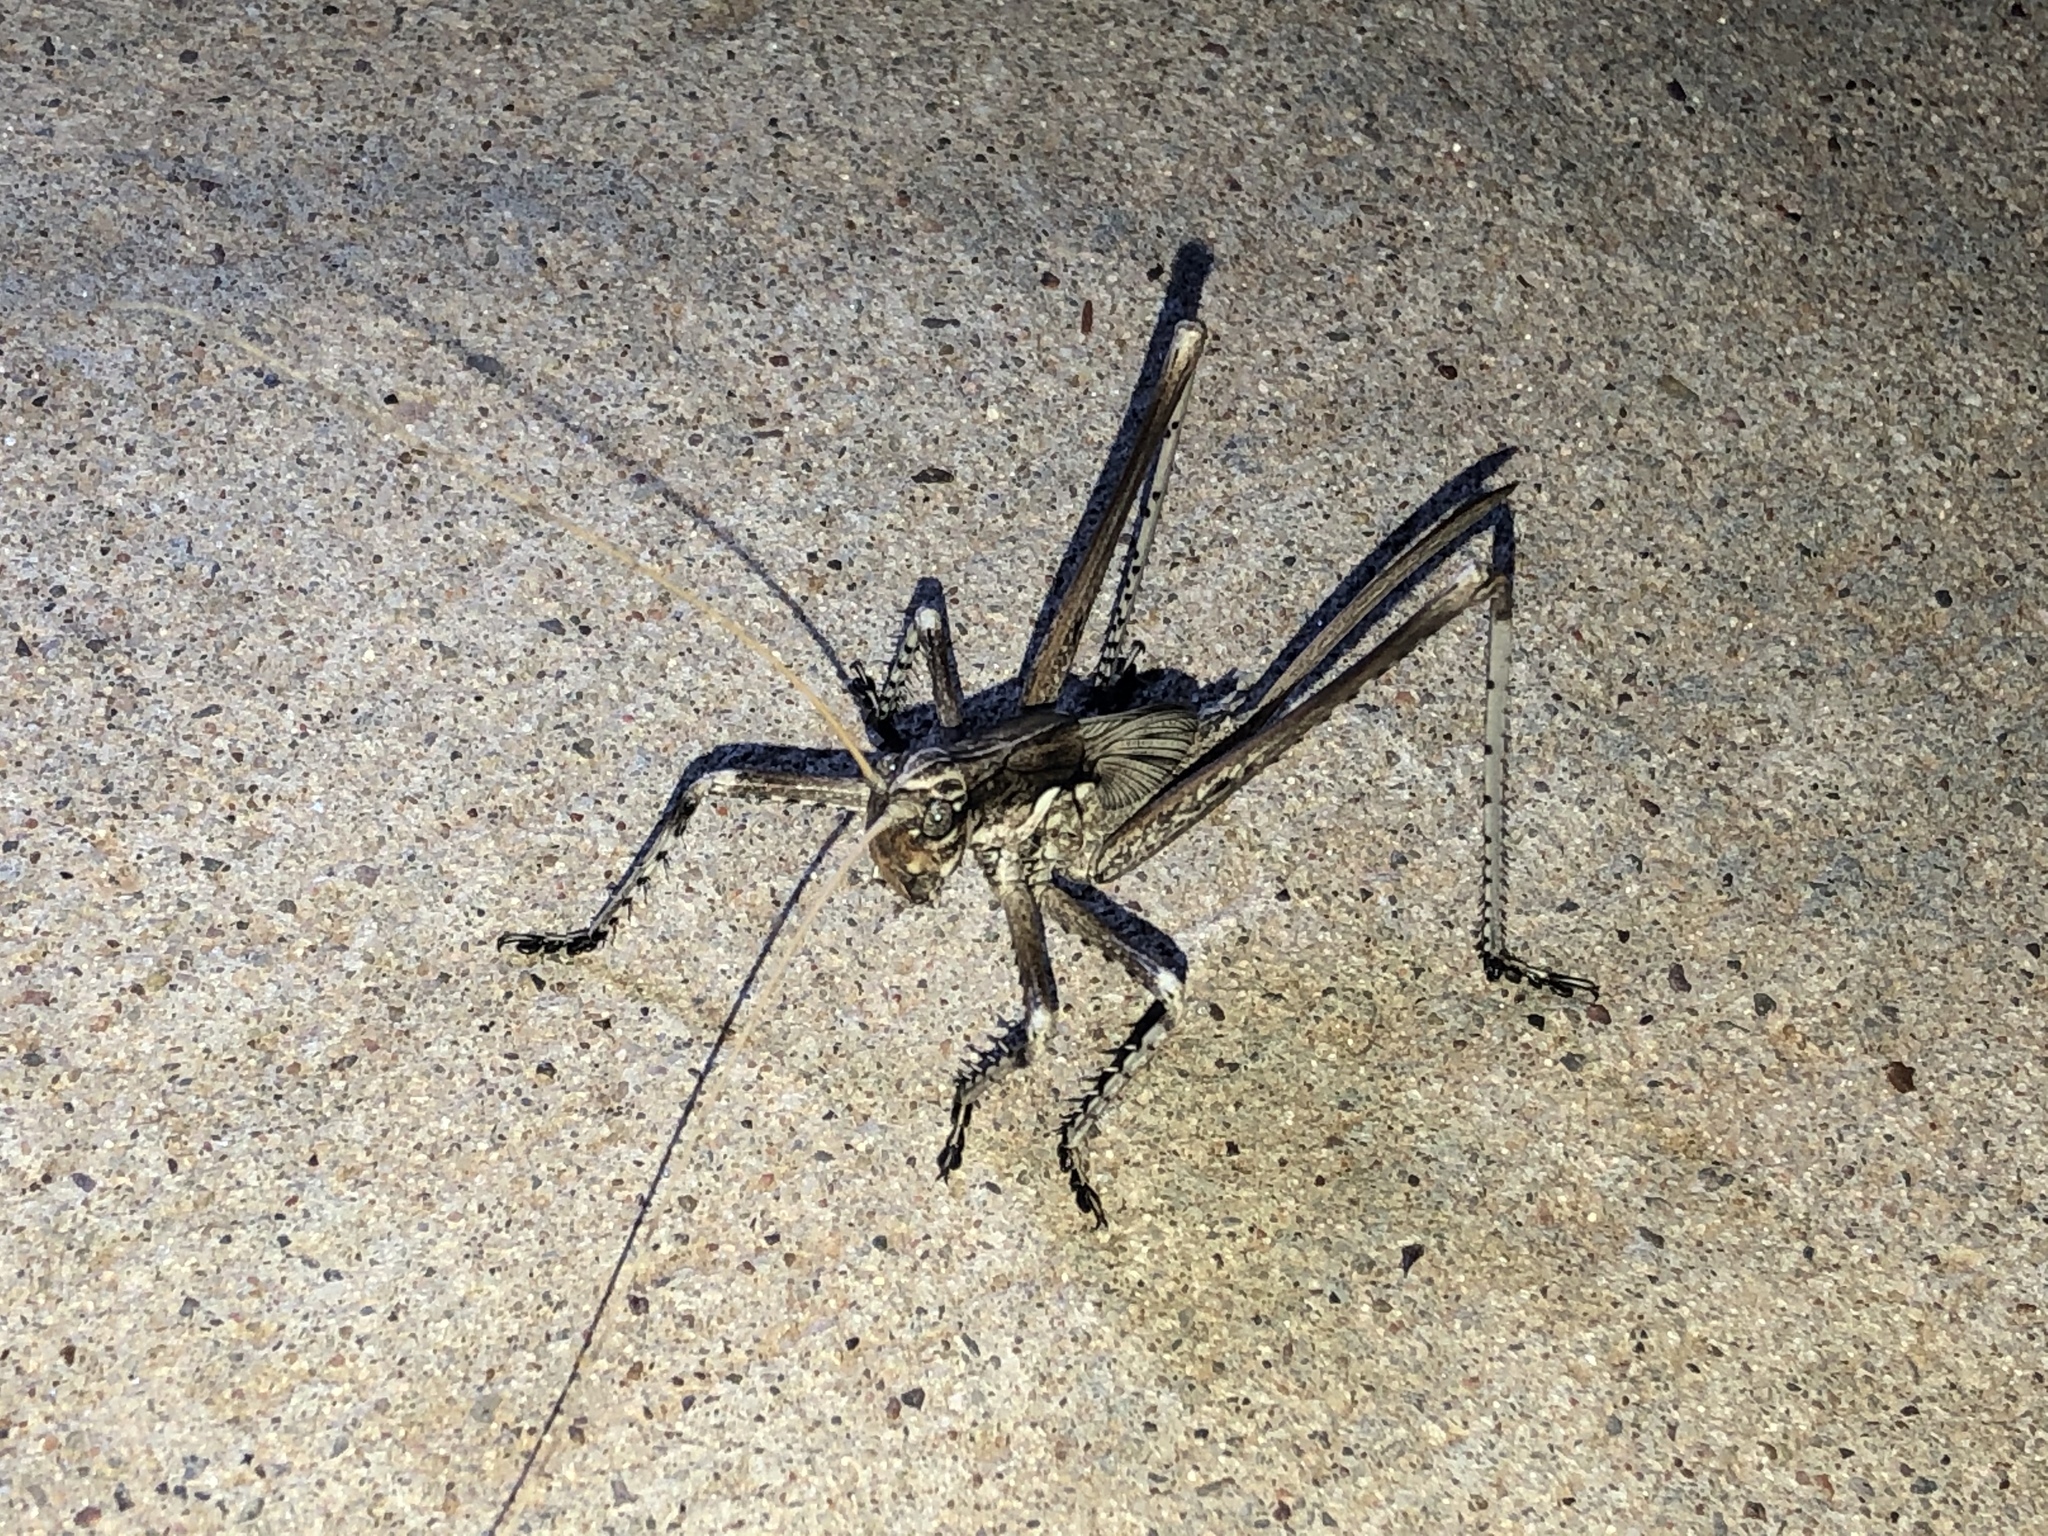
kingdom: Animalia
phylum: Arthropoda
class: Insecta
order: Orthoptera
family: Tettigoniidae
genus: Capnobotes
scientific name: Capnobotes fuliginosus
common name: Sooty longwing
